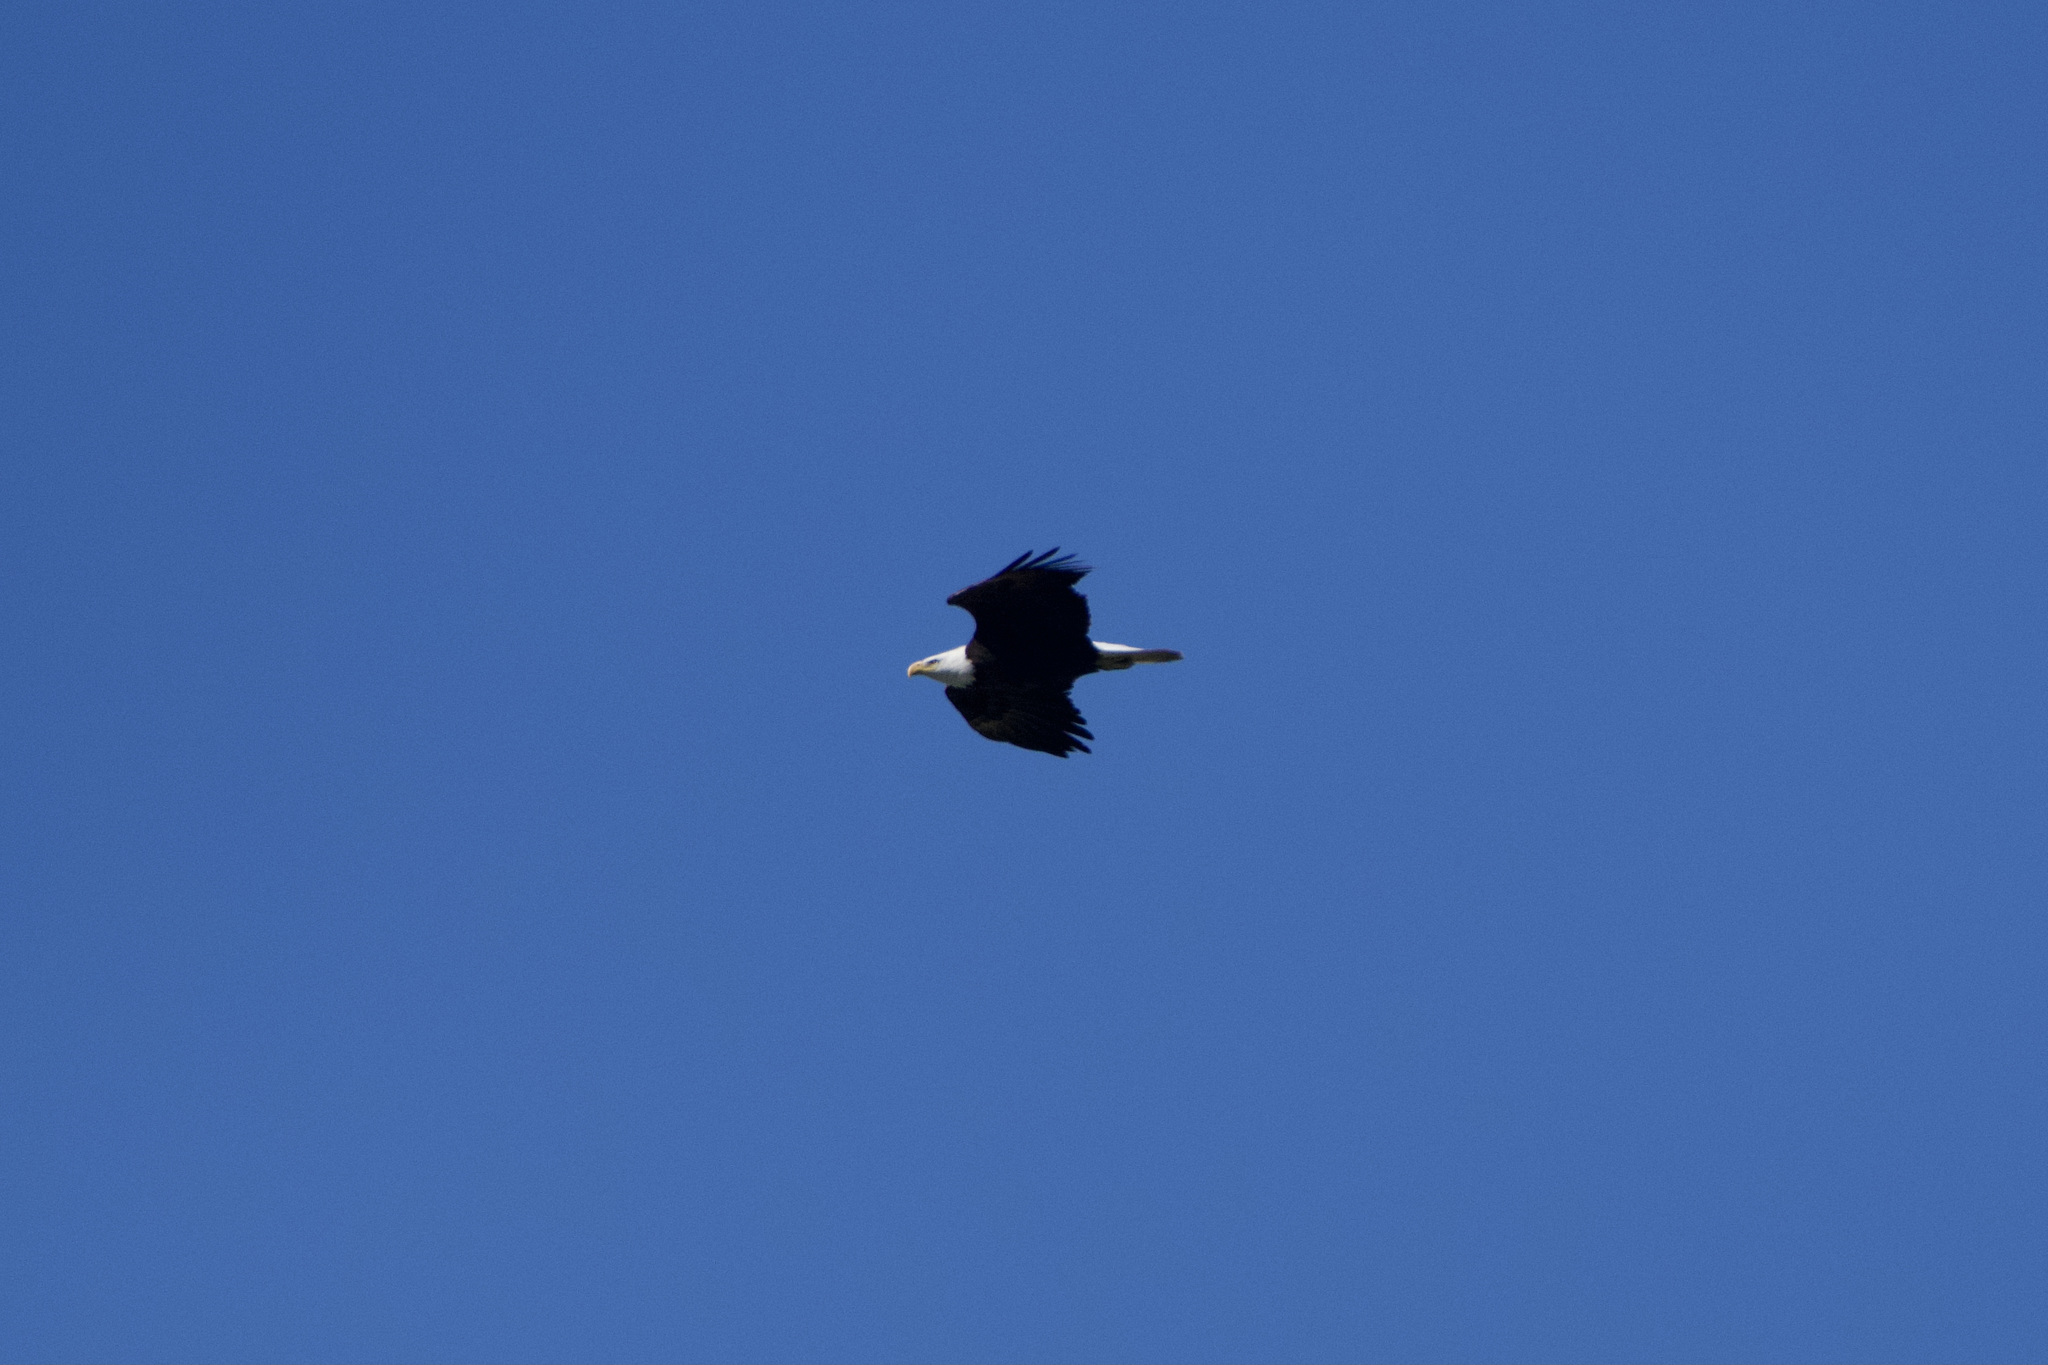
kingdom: Animalia
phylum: Chordata
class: Aves
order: Accipitriformes
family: Accipitridae
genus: Haliaeetus
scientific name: Haliaeetus leucocephalus
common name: Bald eagle
